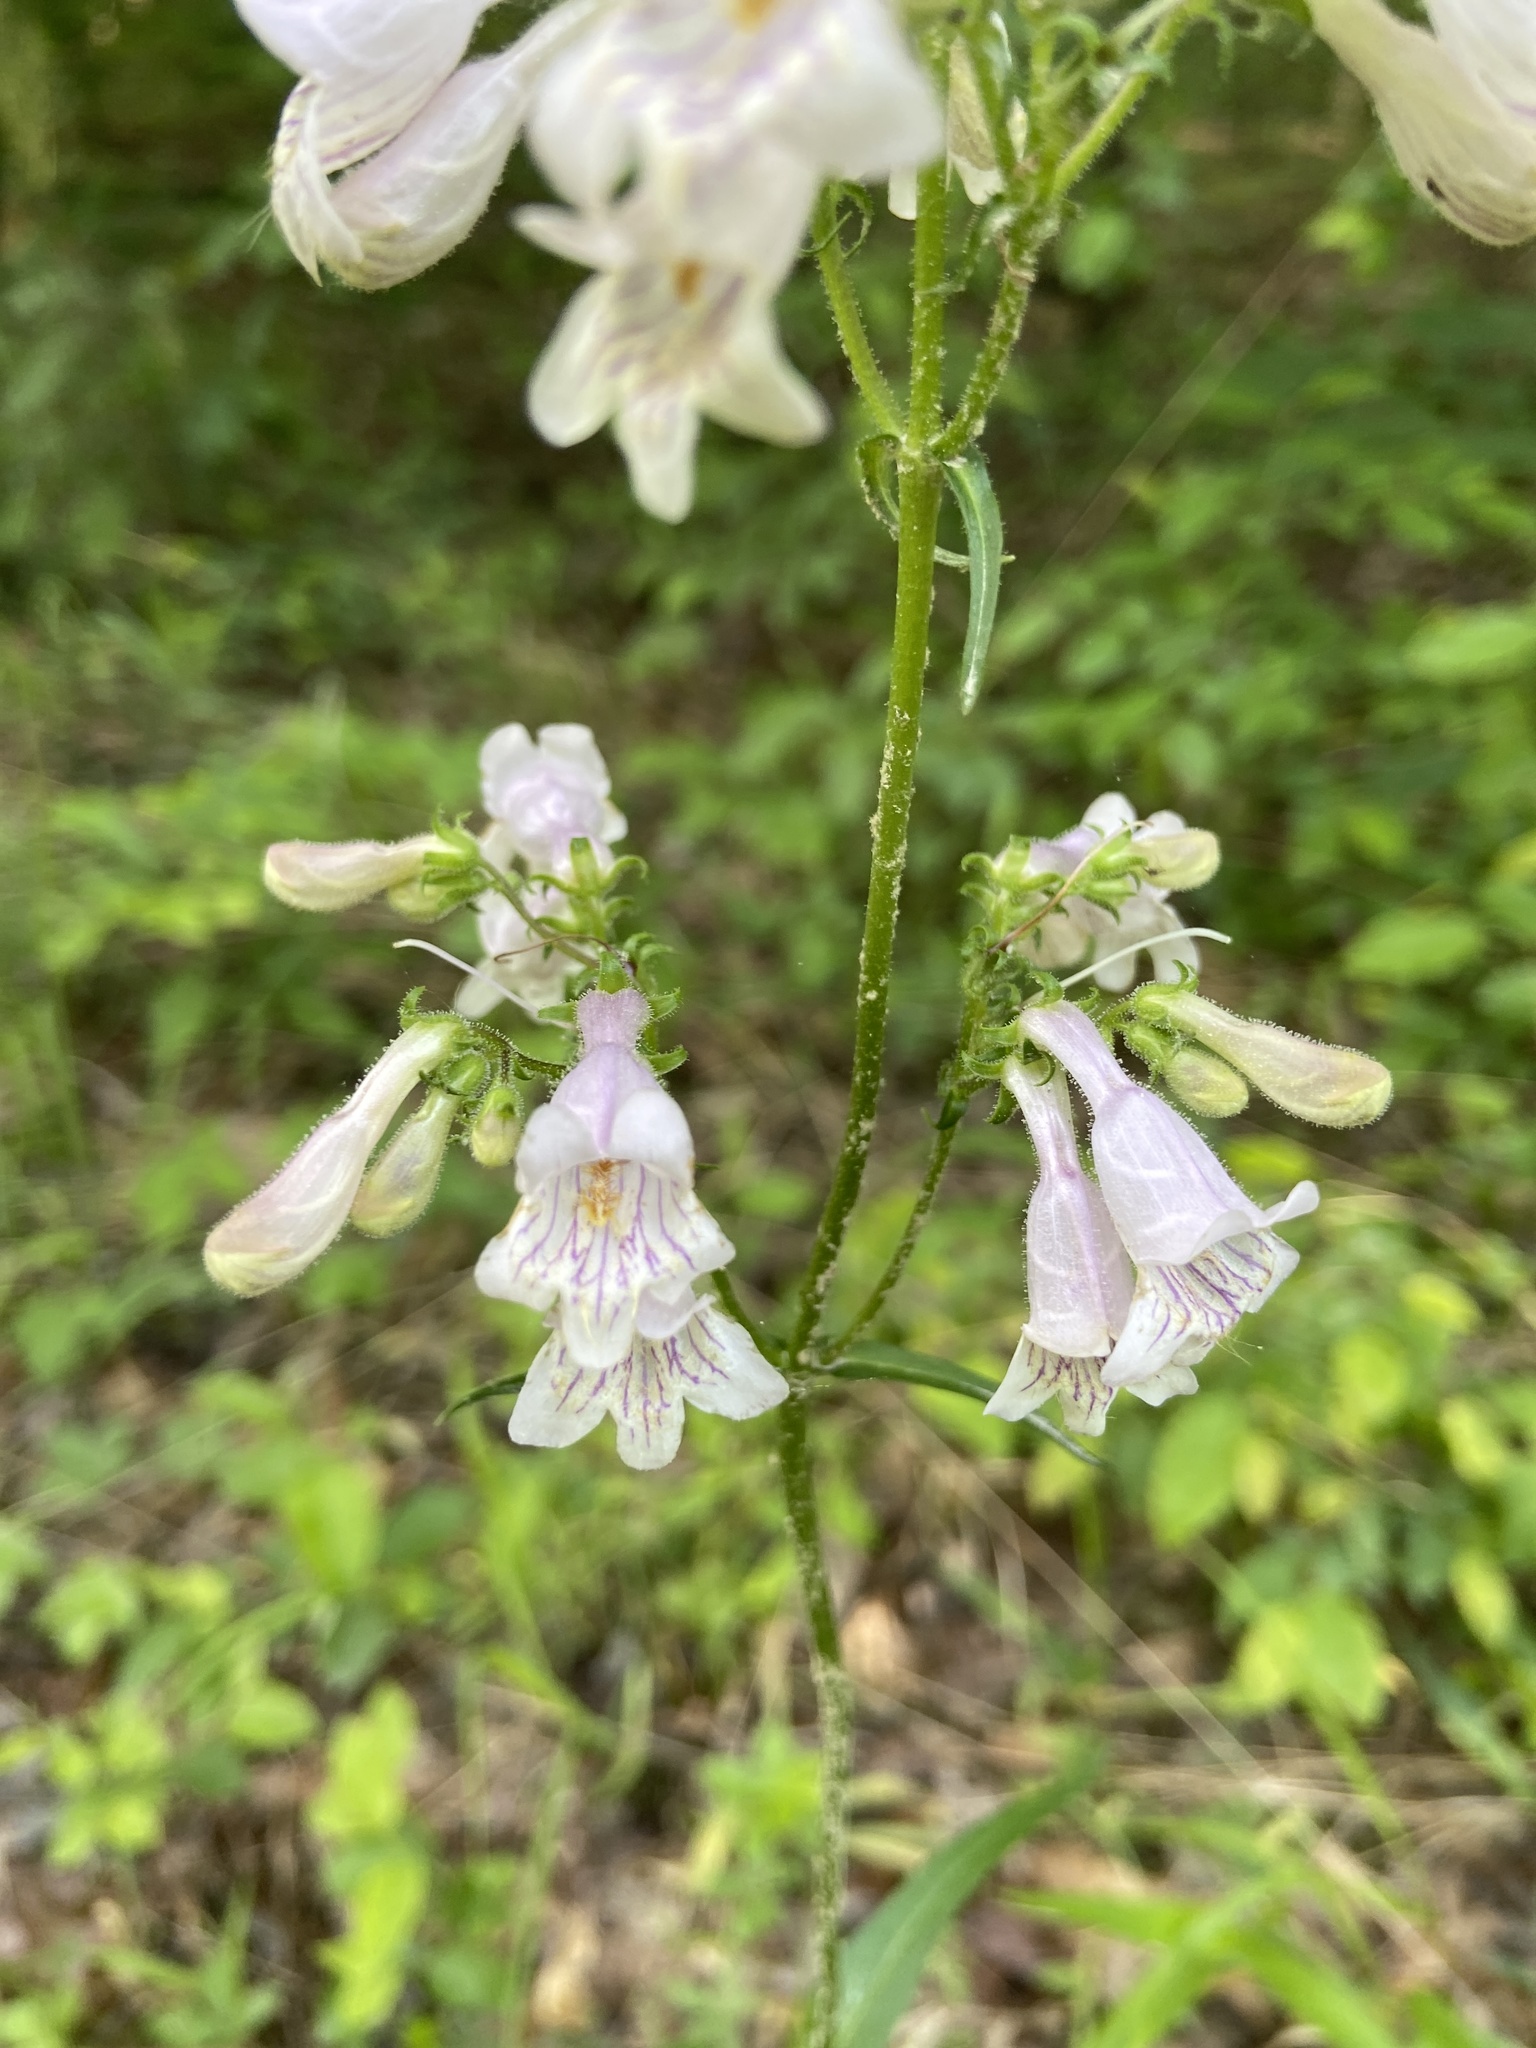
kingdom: Plantae
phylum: Tracheophyta
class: Magnoliopsida
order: Lamiales
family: Plantaginaceae
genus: Penstemon
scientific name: Penstemon laevigatus
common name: Eastern beardtongue
